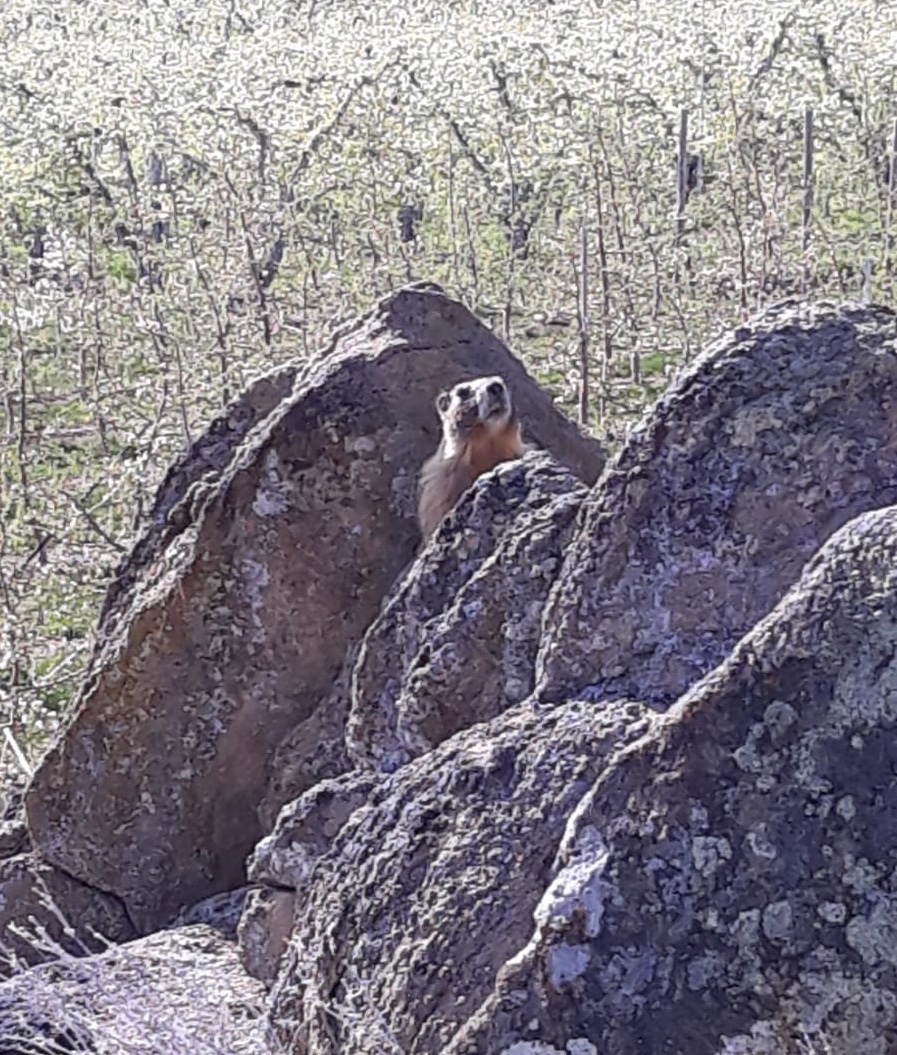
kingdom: Animalia
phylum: Chordata
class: Mammalia
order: Rodentia
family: Sciuridae
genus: Marmota
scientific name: Marmota flaviventris
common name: Yellow-bellied marmot
